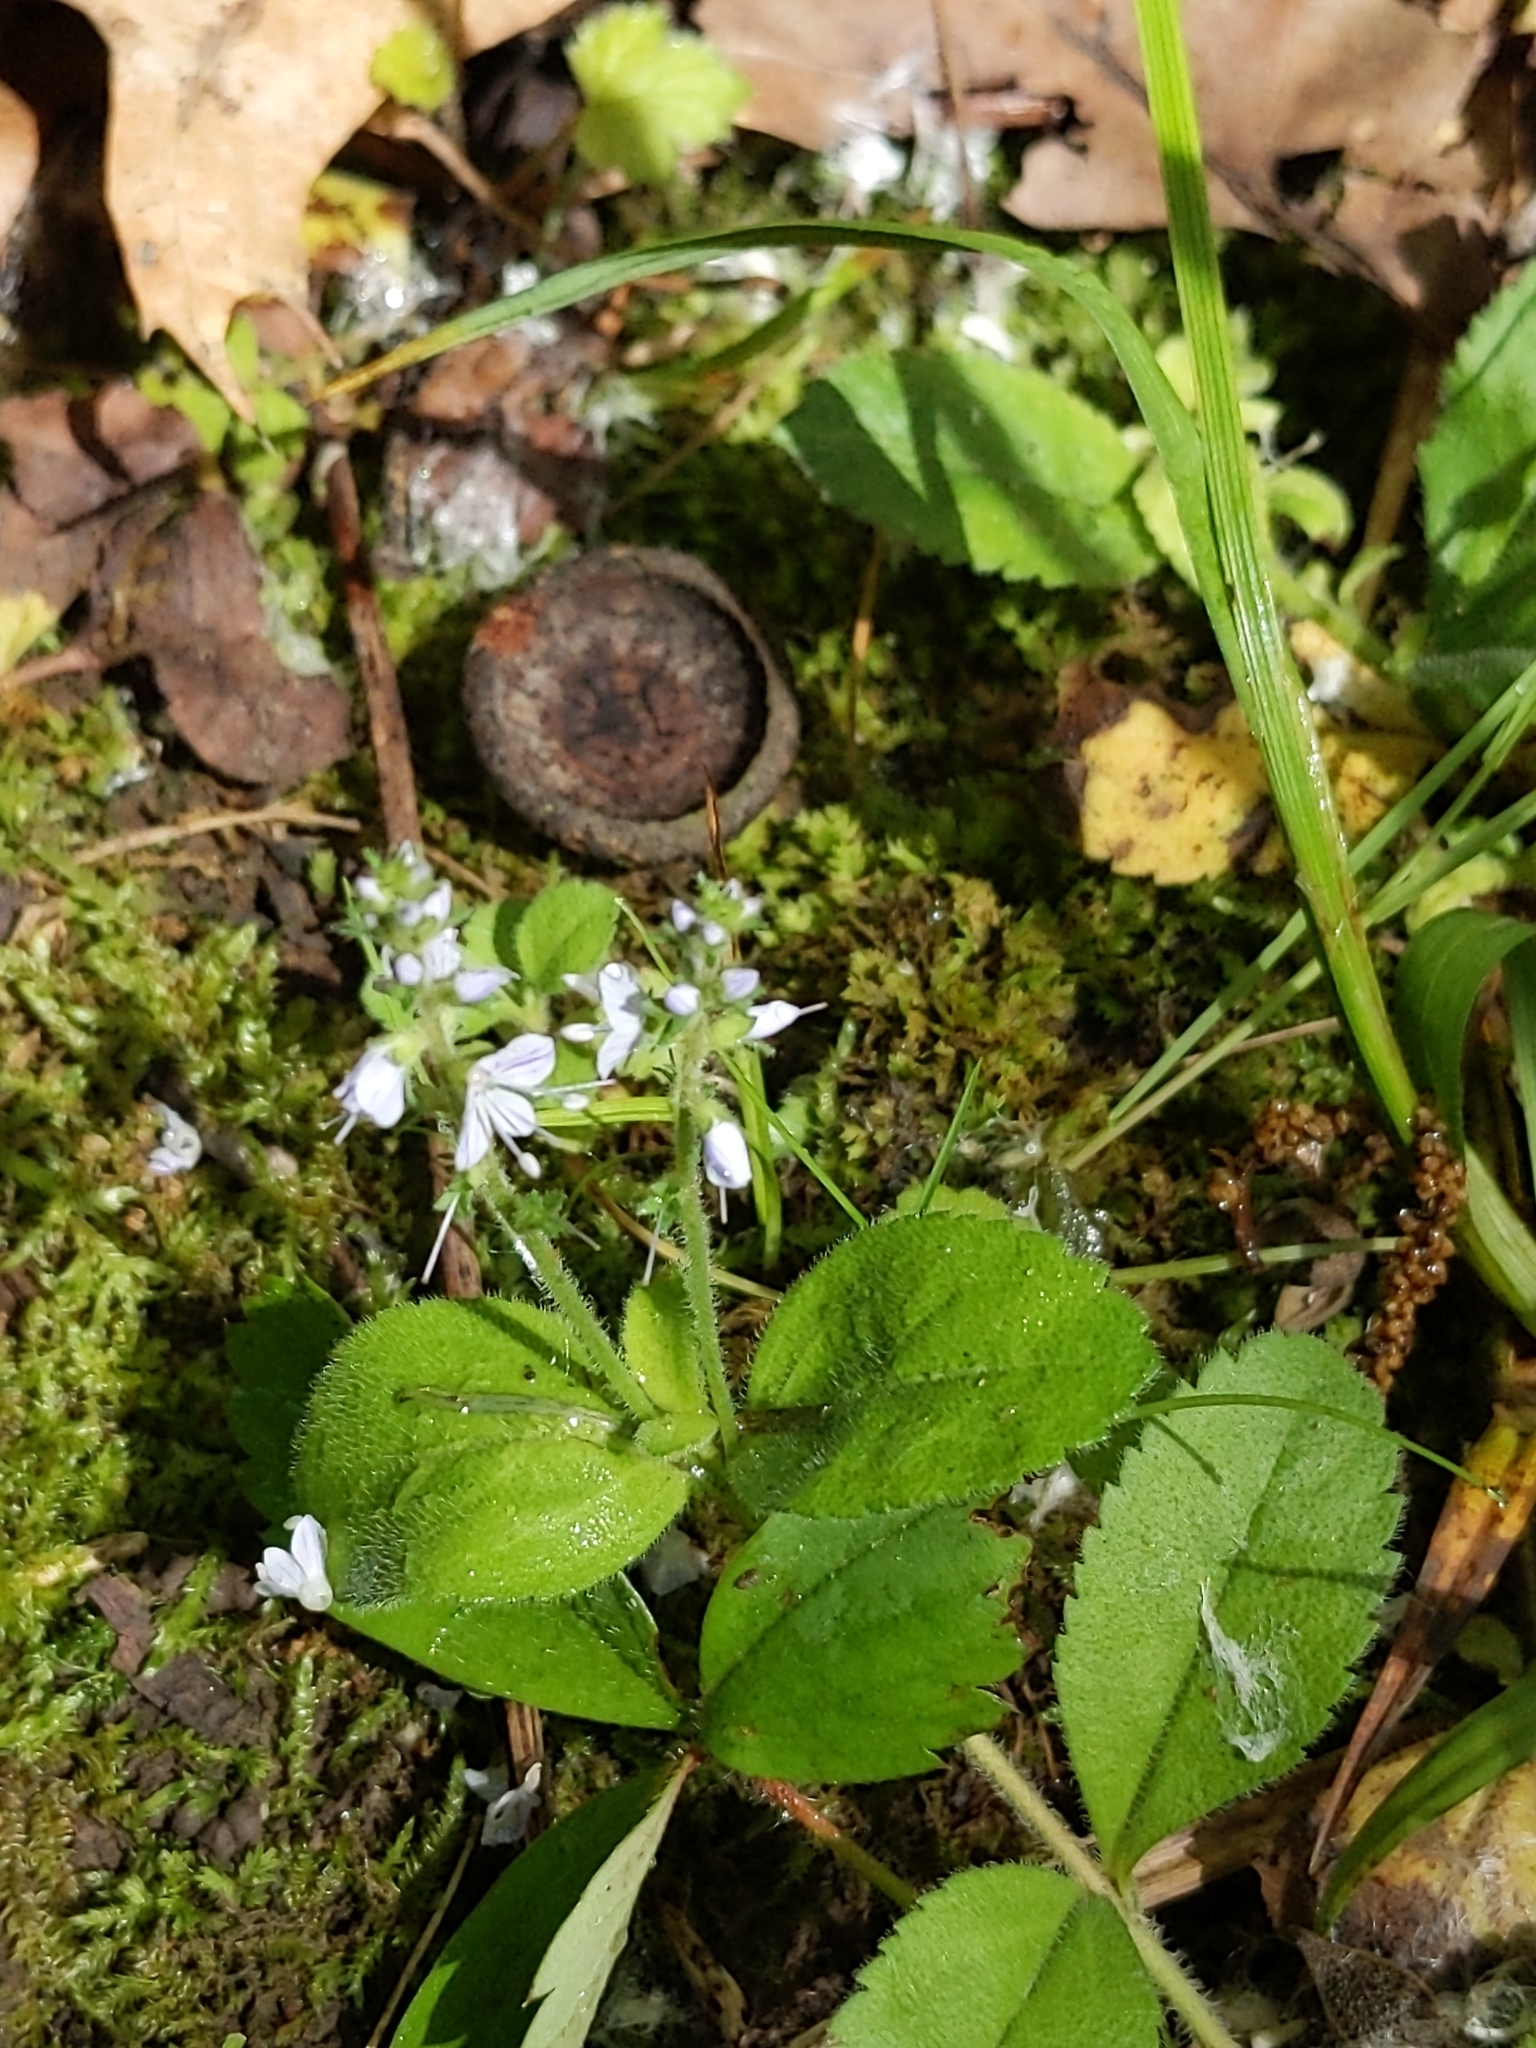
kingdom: Plantae
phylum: Tracheophyta
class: Magnoliopsida
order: Lamiales
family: Plantaginaceae
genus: Veronica
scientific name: Veronica officinalis
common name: Common speedwell
